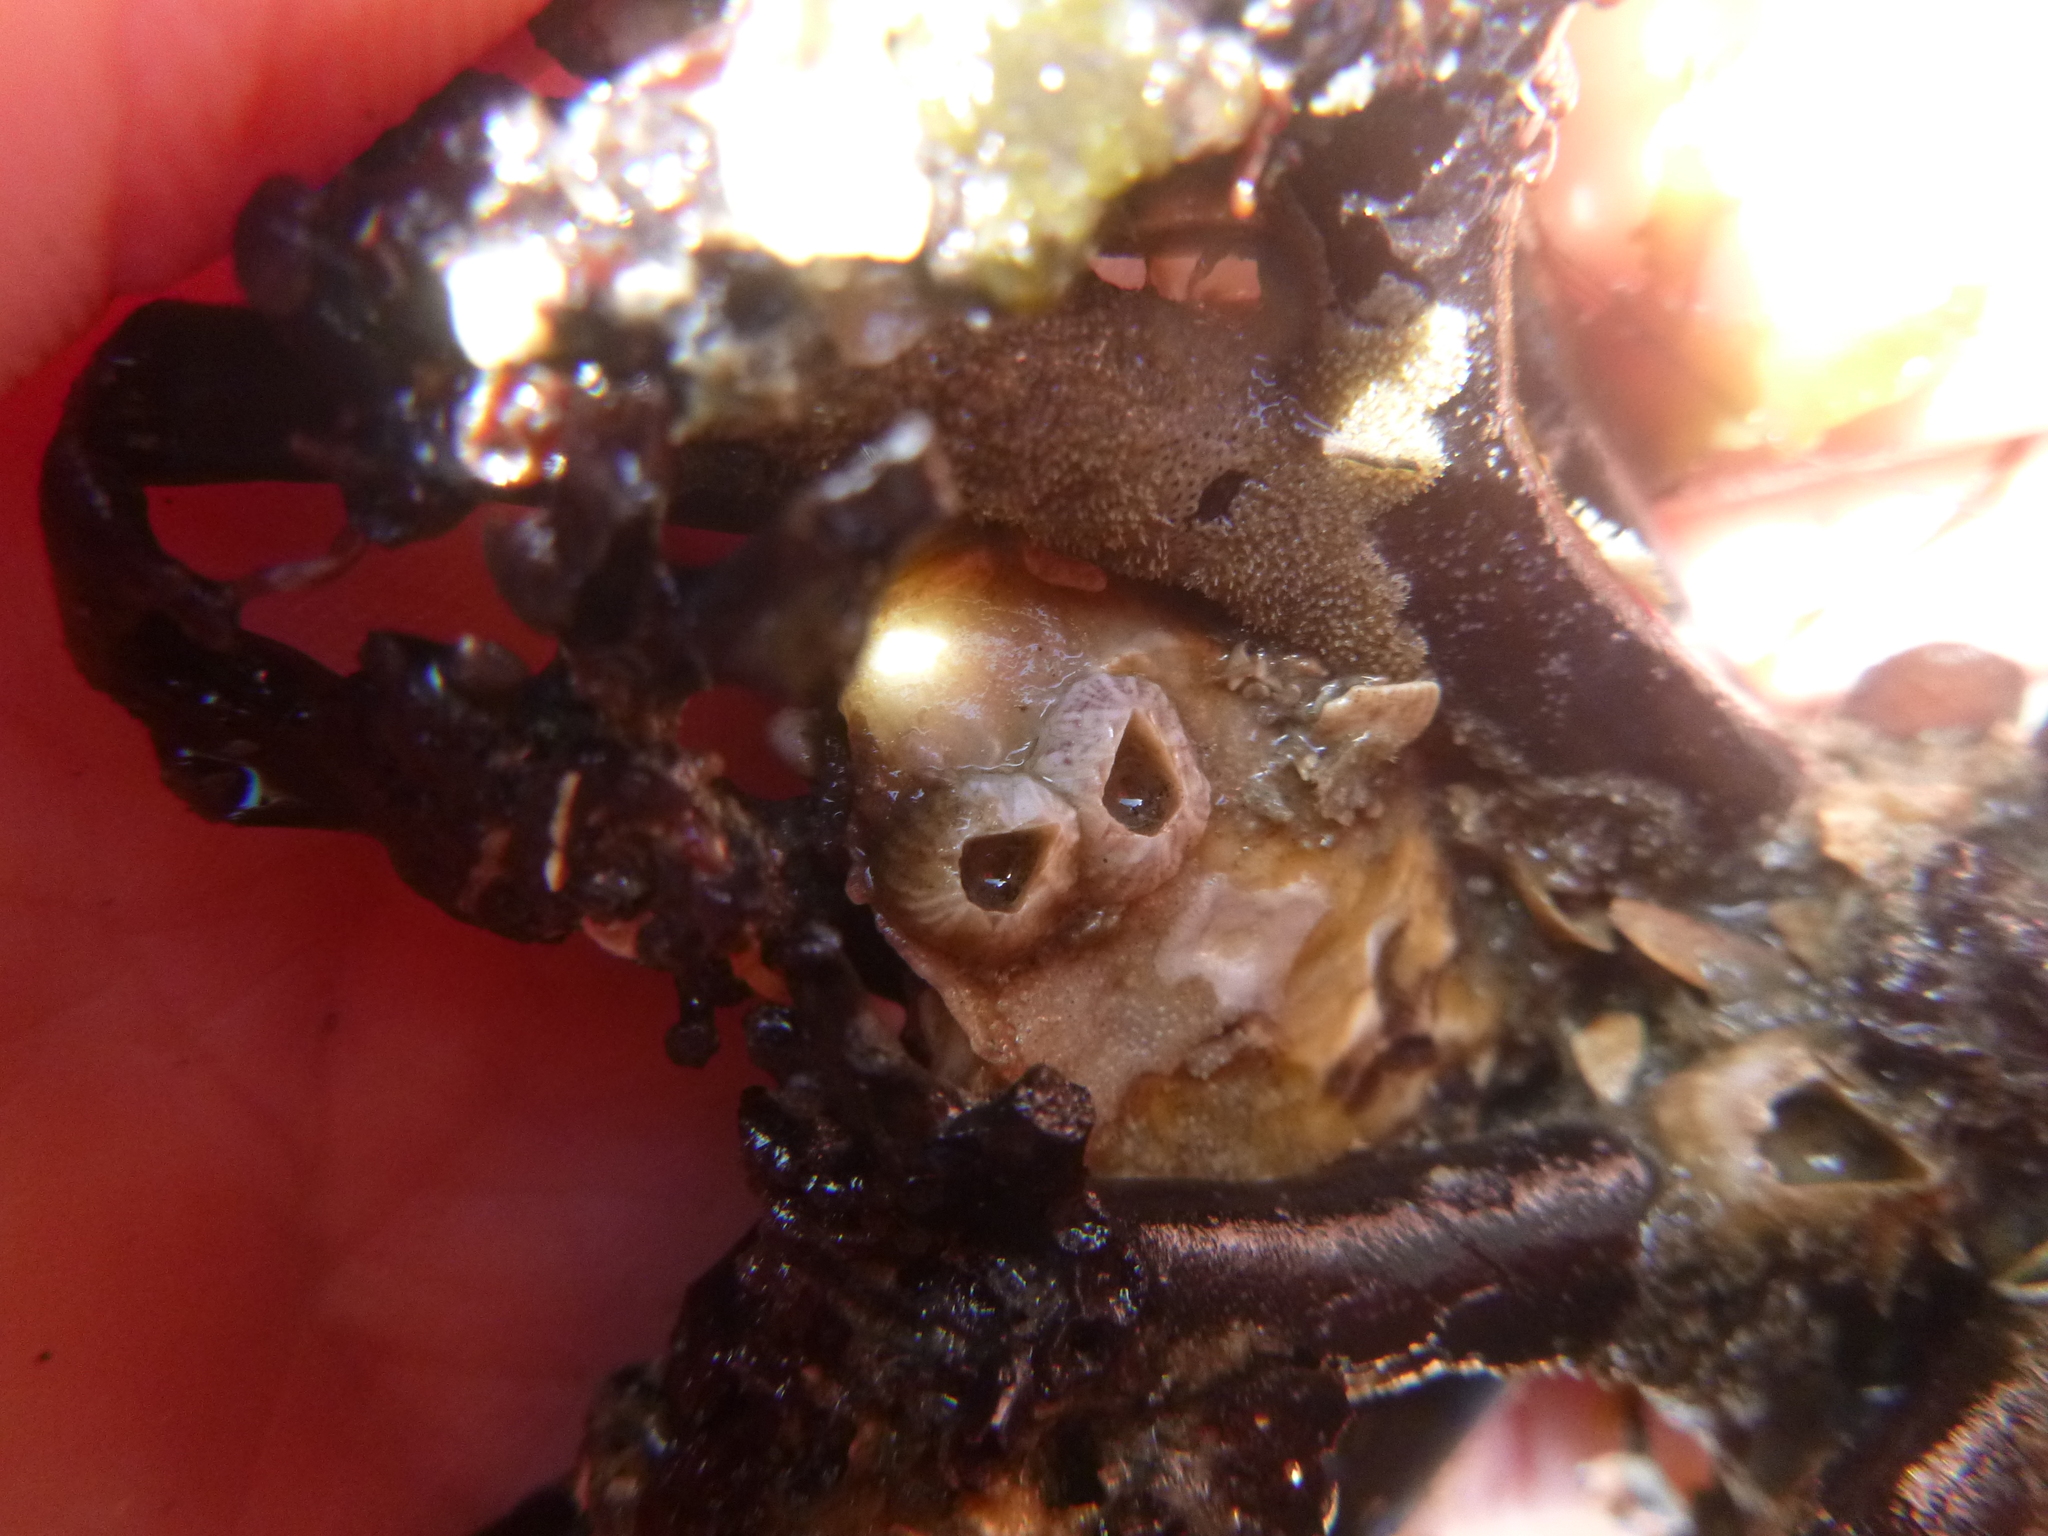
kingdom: Animalia
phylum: Arthropoda
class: Maxillopoda
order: Sessilia
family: Balanidae
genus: Balanus
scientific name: Balanus trigonus
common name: Triangle barnacle
